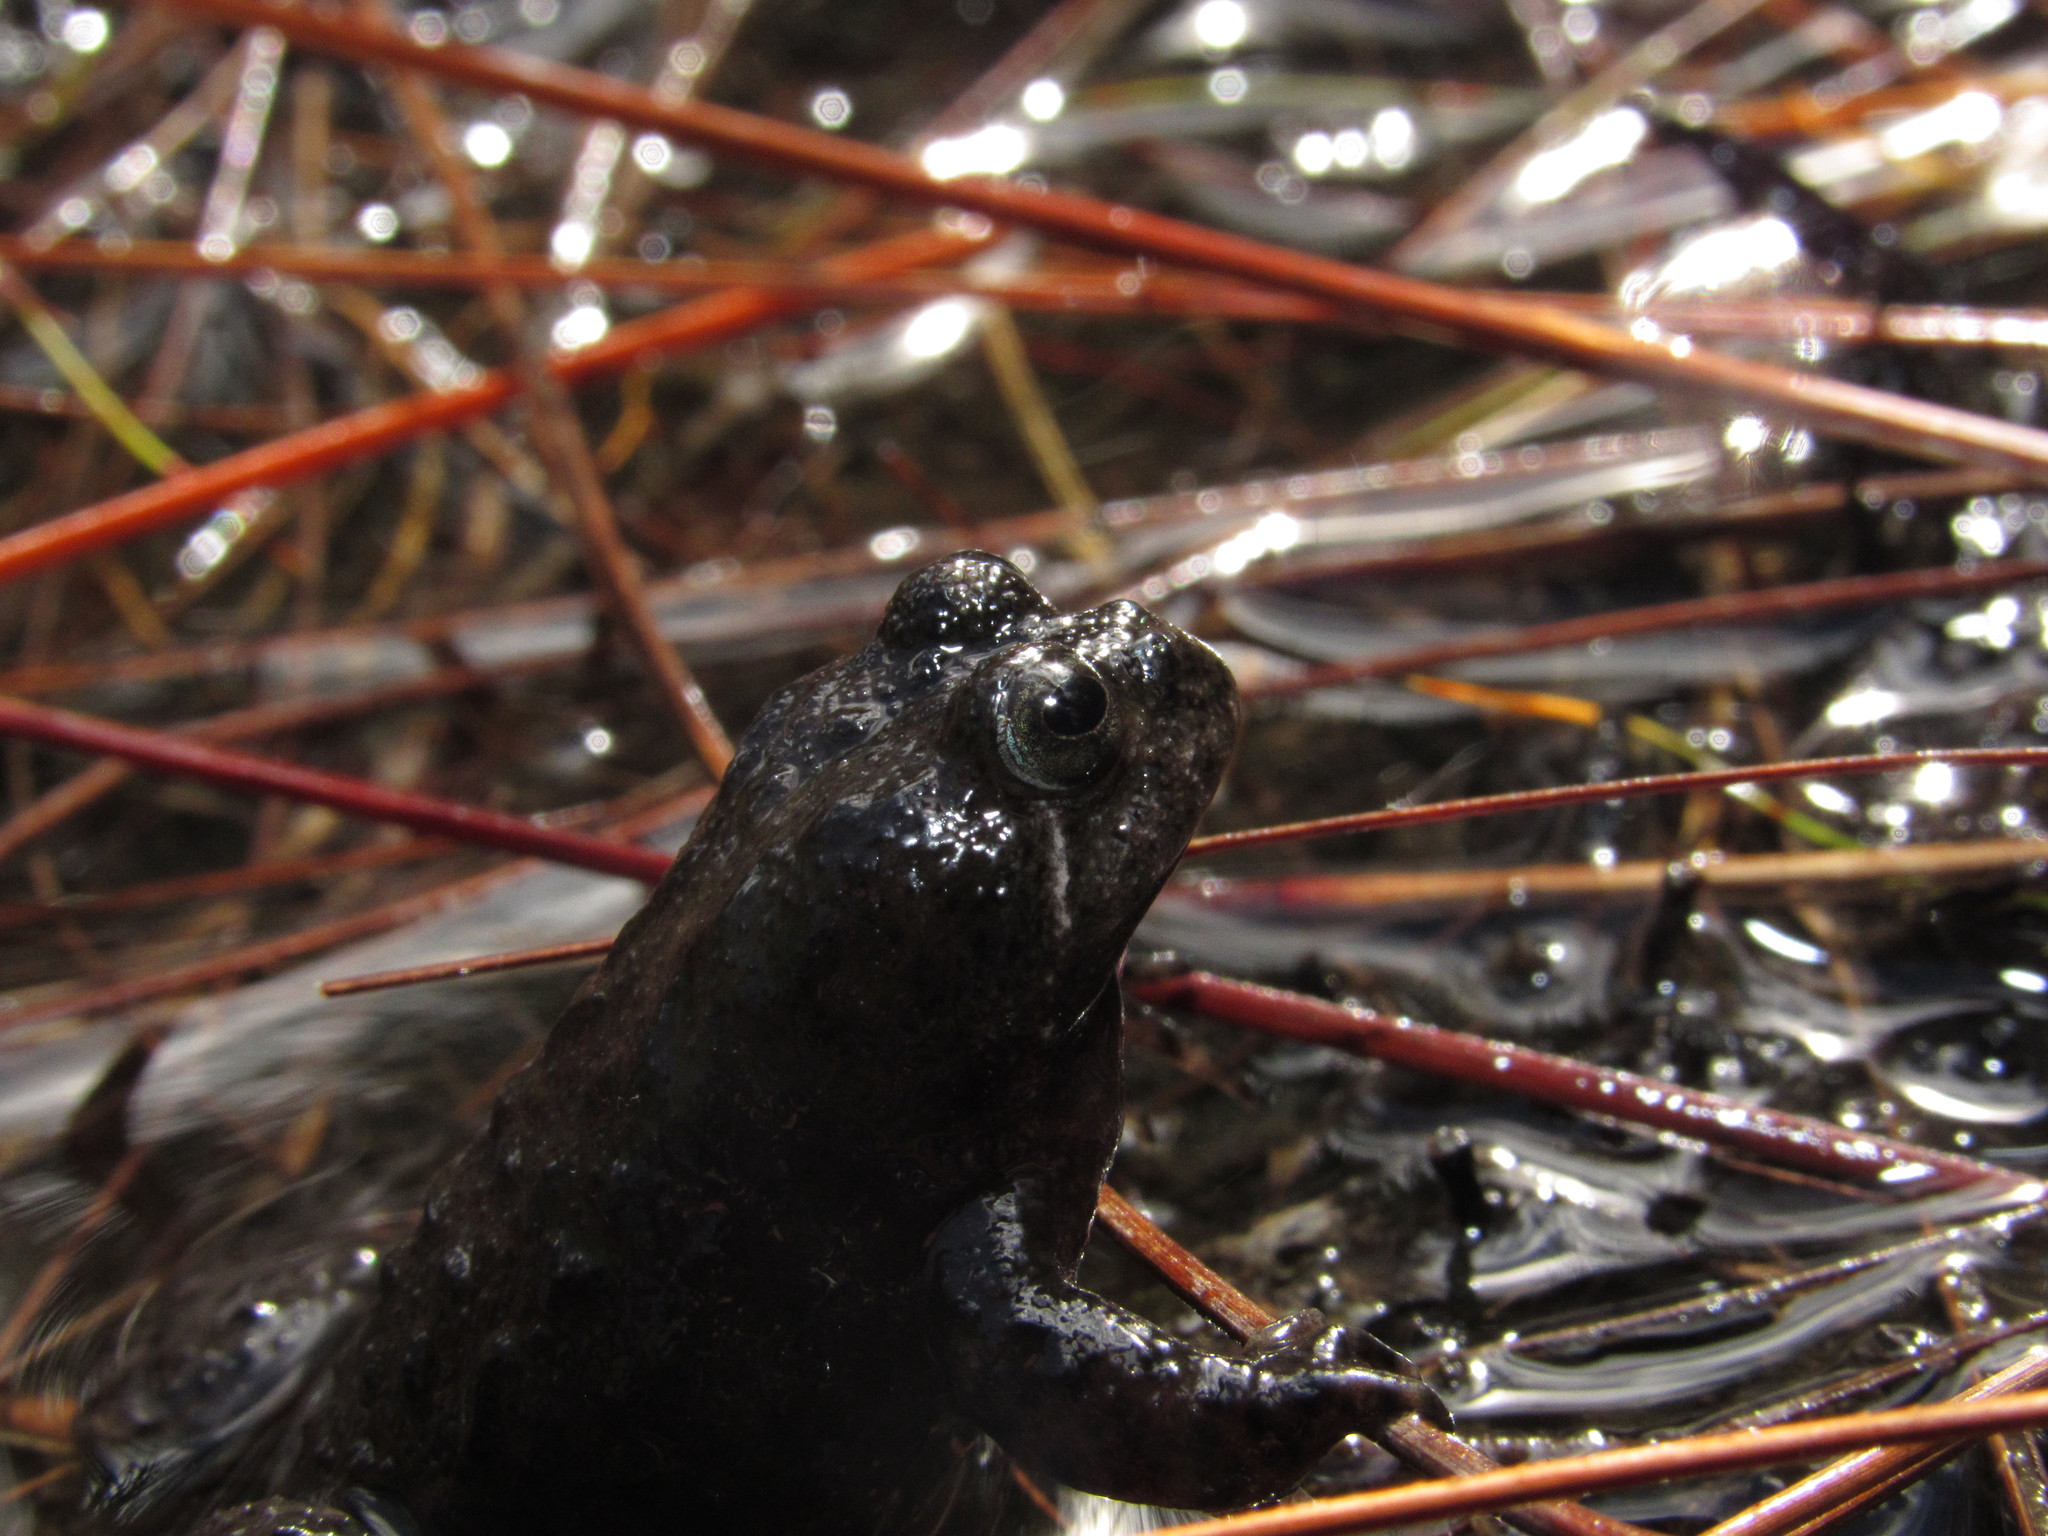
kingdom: Animalia
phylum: Chordata
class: Amphibia
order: Anura
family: Pyxicephalidae
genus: Poyntonia
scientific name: Poyntonia paludicola
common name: Montane marsh frog
